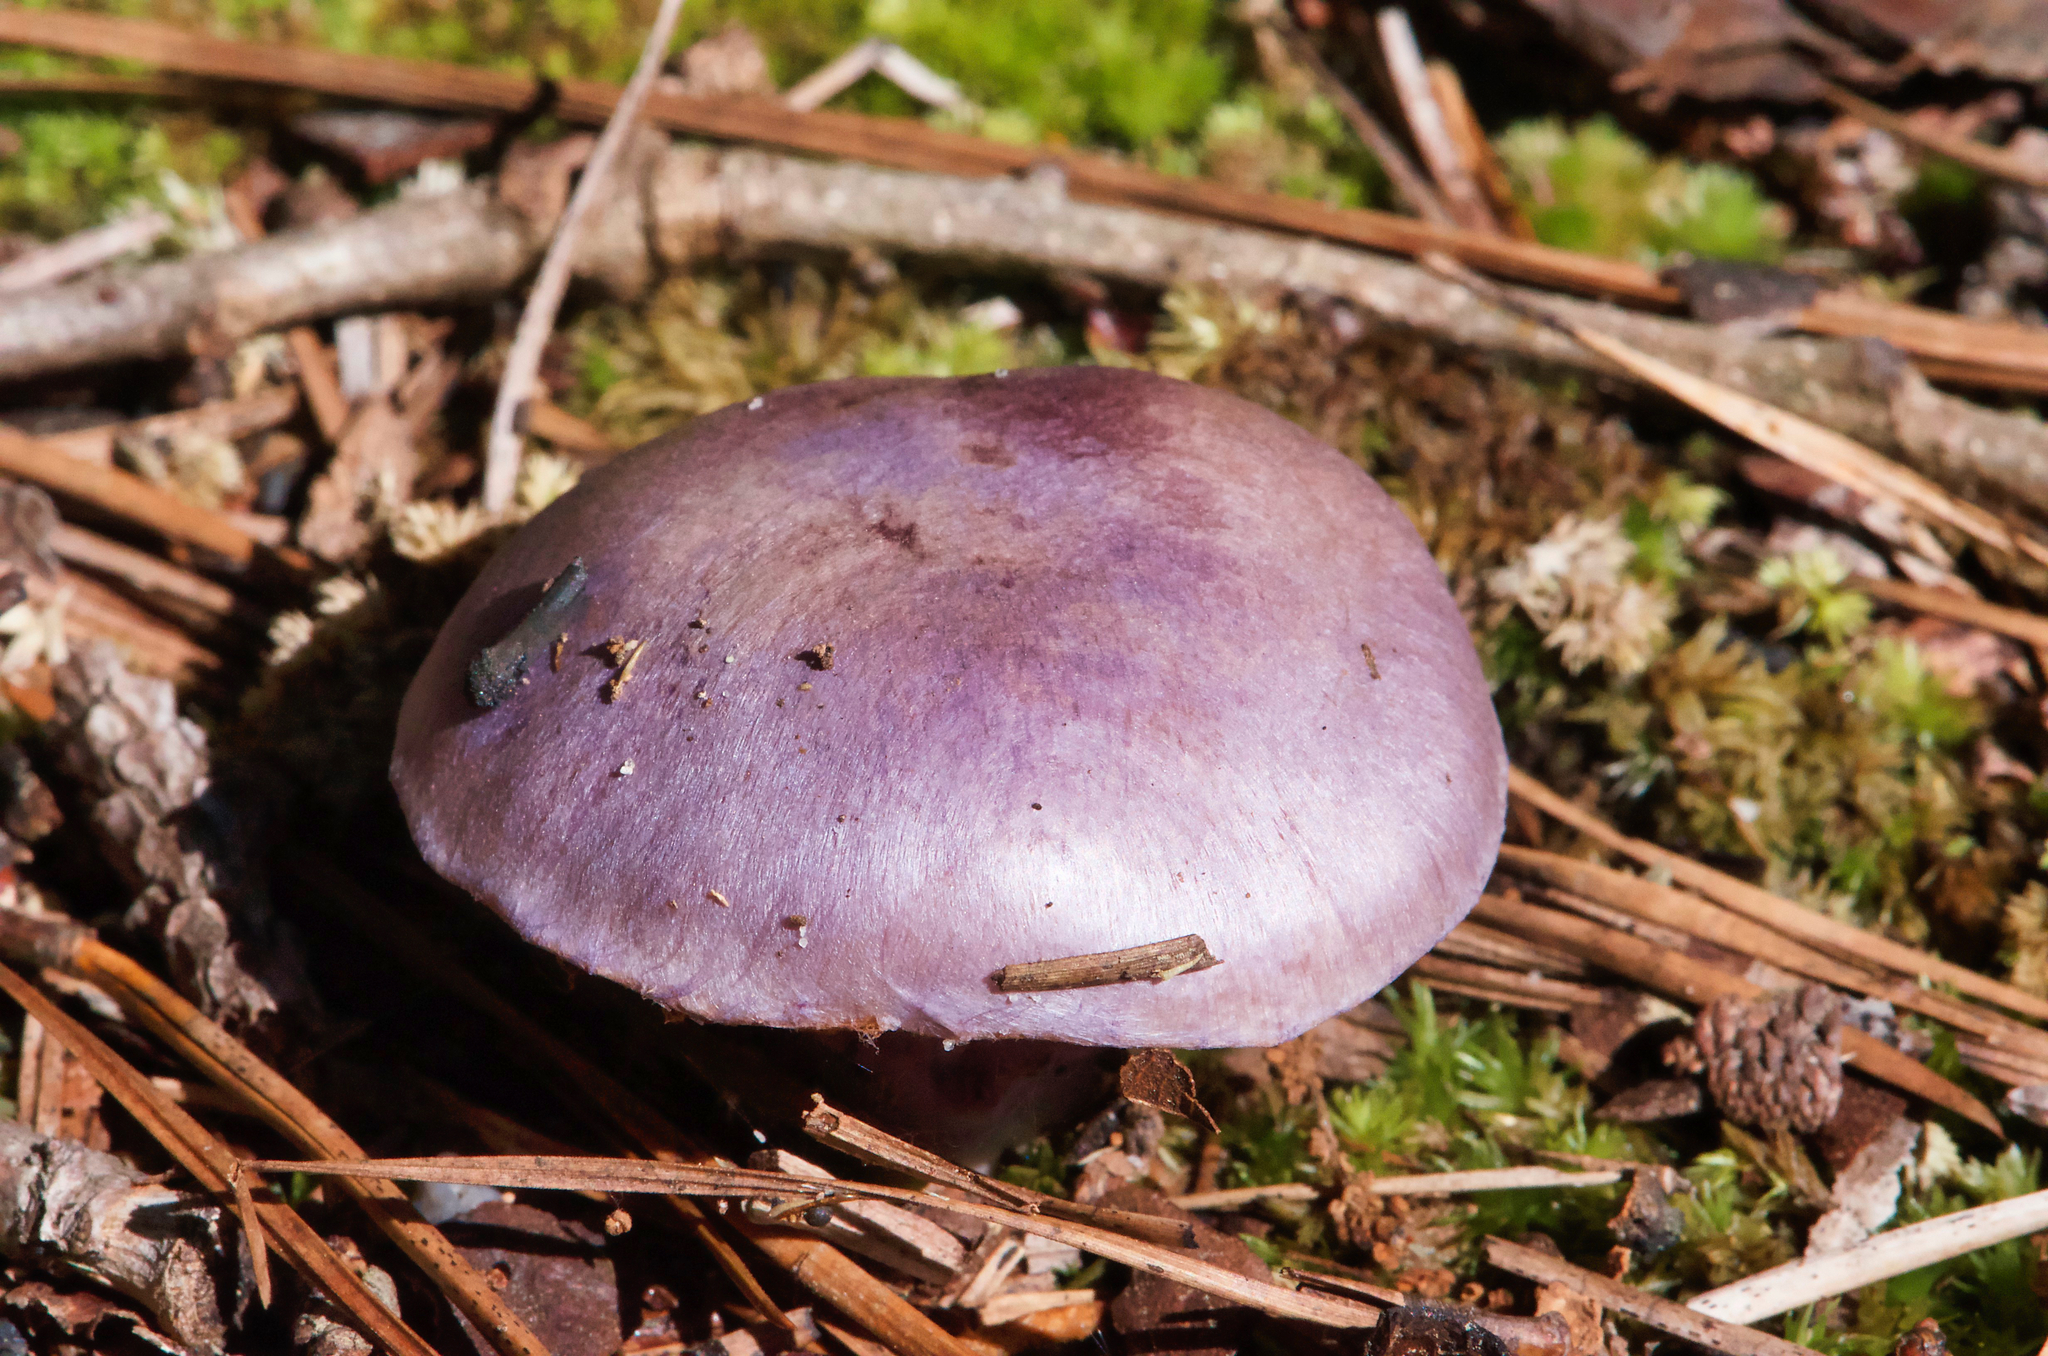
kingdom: Fungi
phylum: Basidiomycota
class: Agaricomycetes
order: Agaricales
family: Cortinariaceae
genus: Cortinarius
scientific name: Cortinarius iodes
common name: Viscid violet cort
